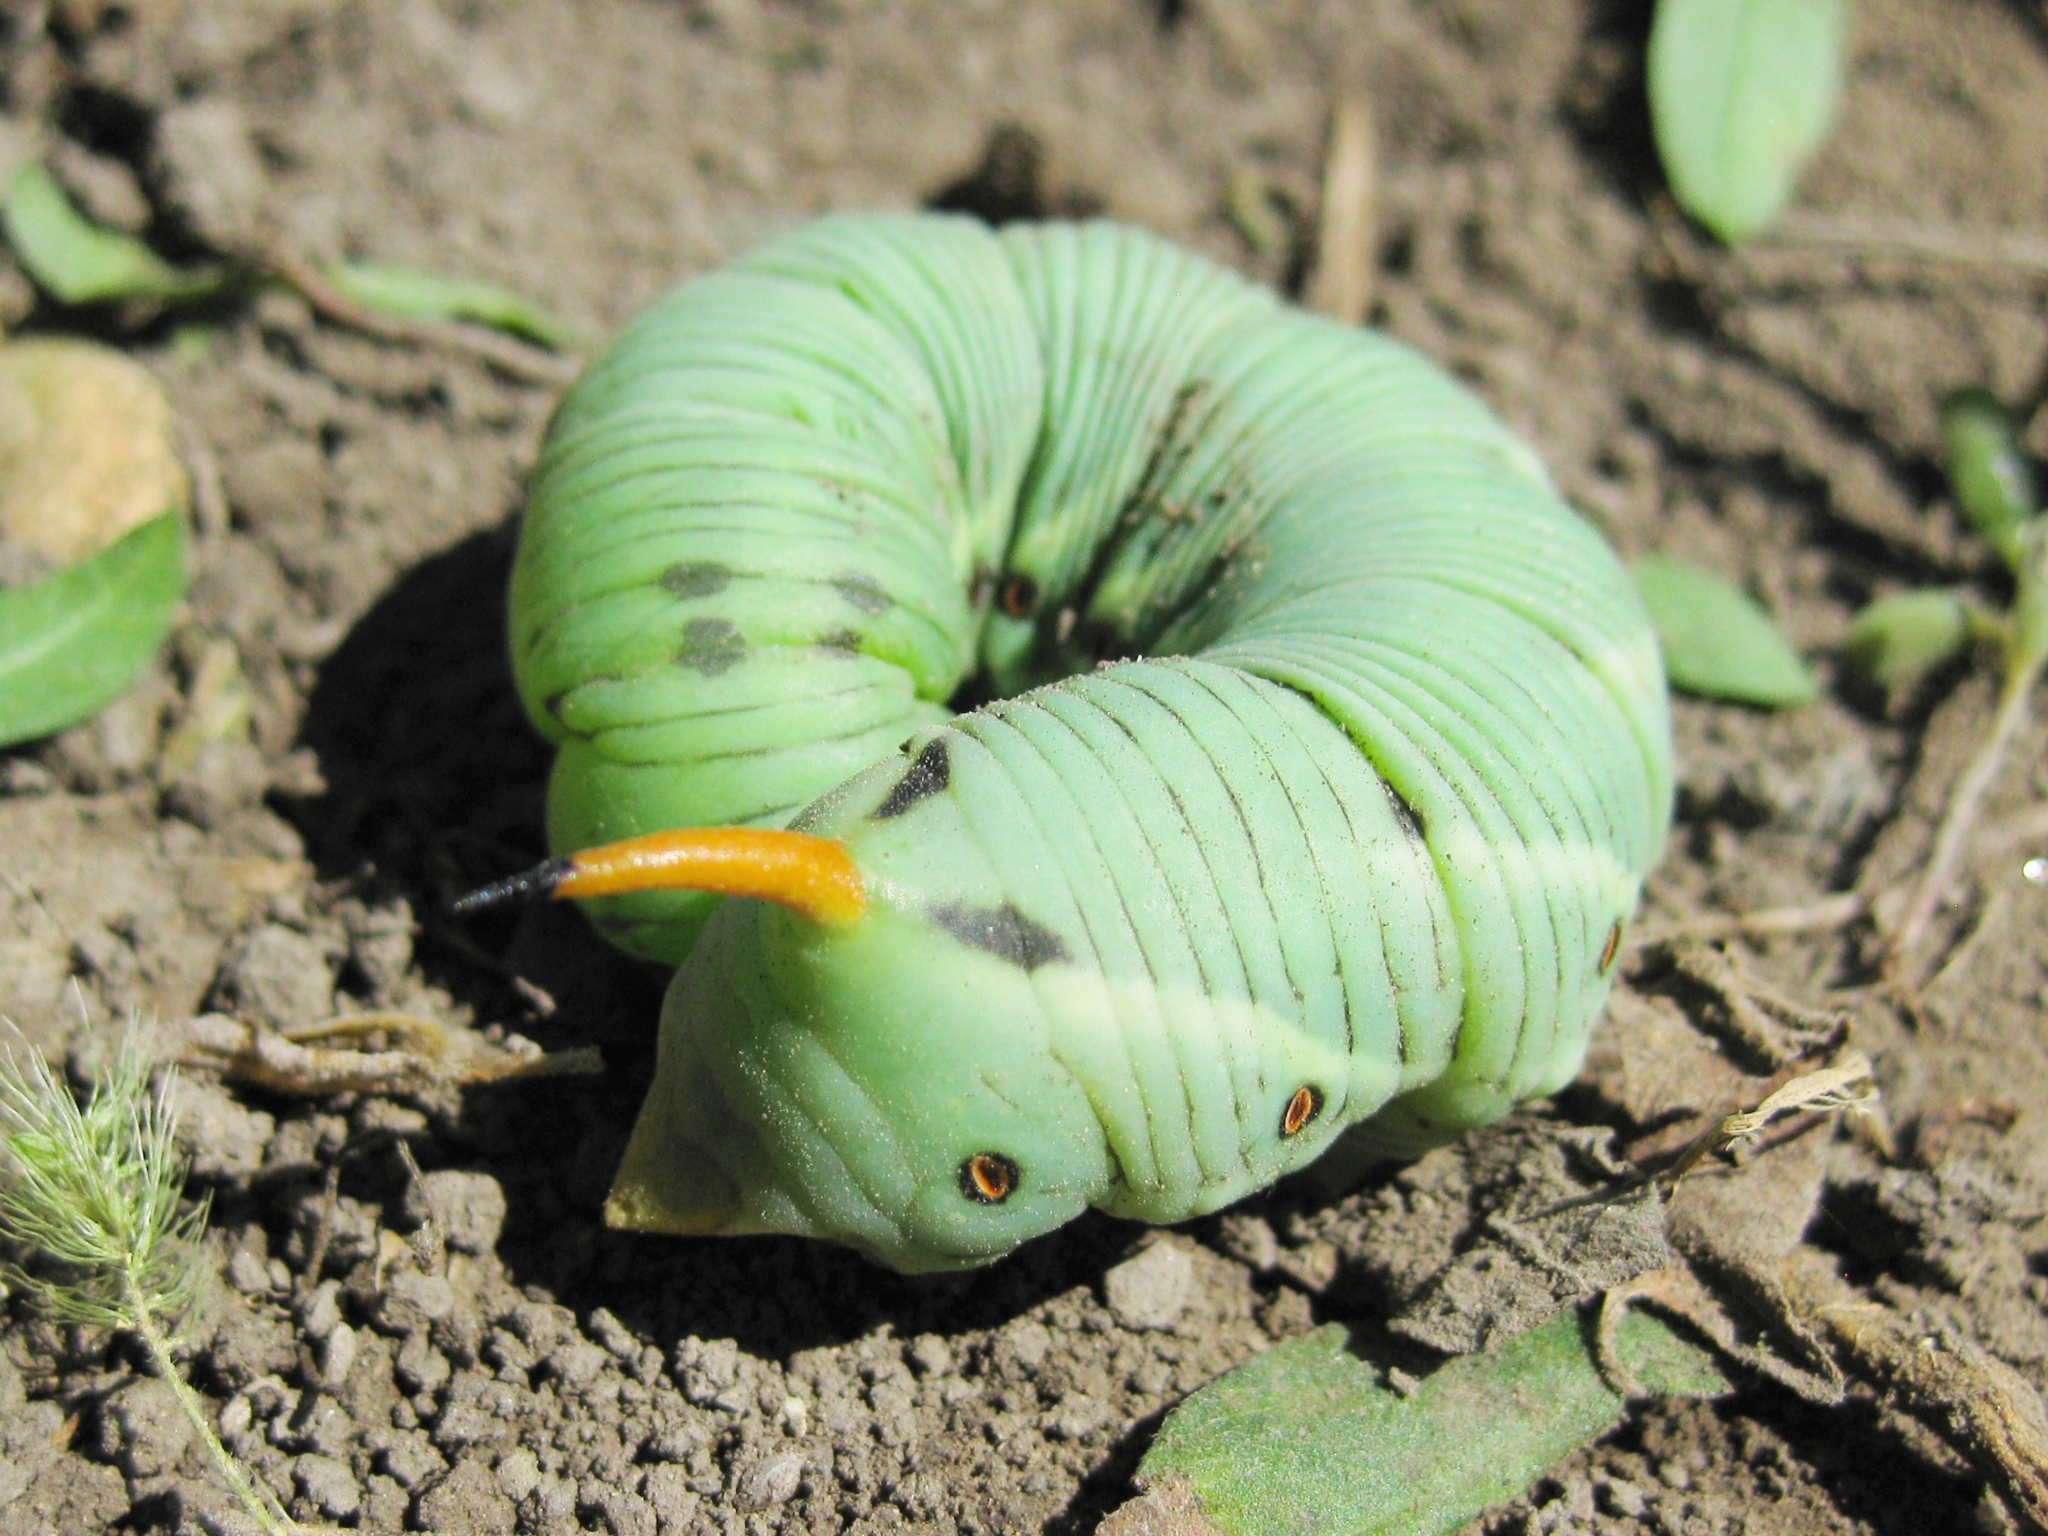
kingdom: Animalia
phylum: Arthropoda
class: Insecta
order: Lepidoptera
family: Sphingidae
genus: Agrius
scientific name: Agrius convolvuli
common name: Convolvulus hawkmoth
